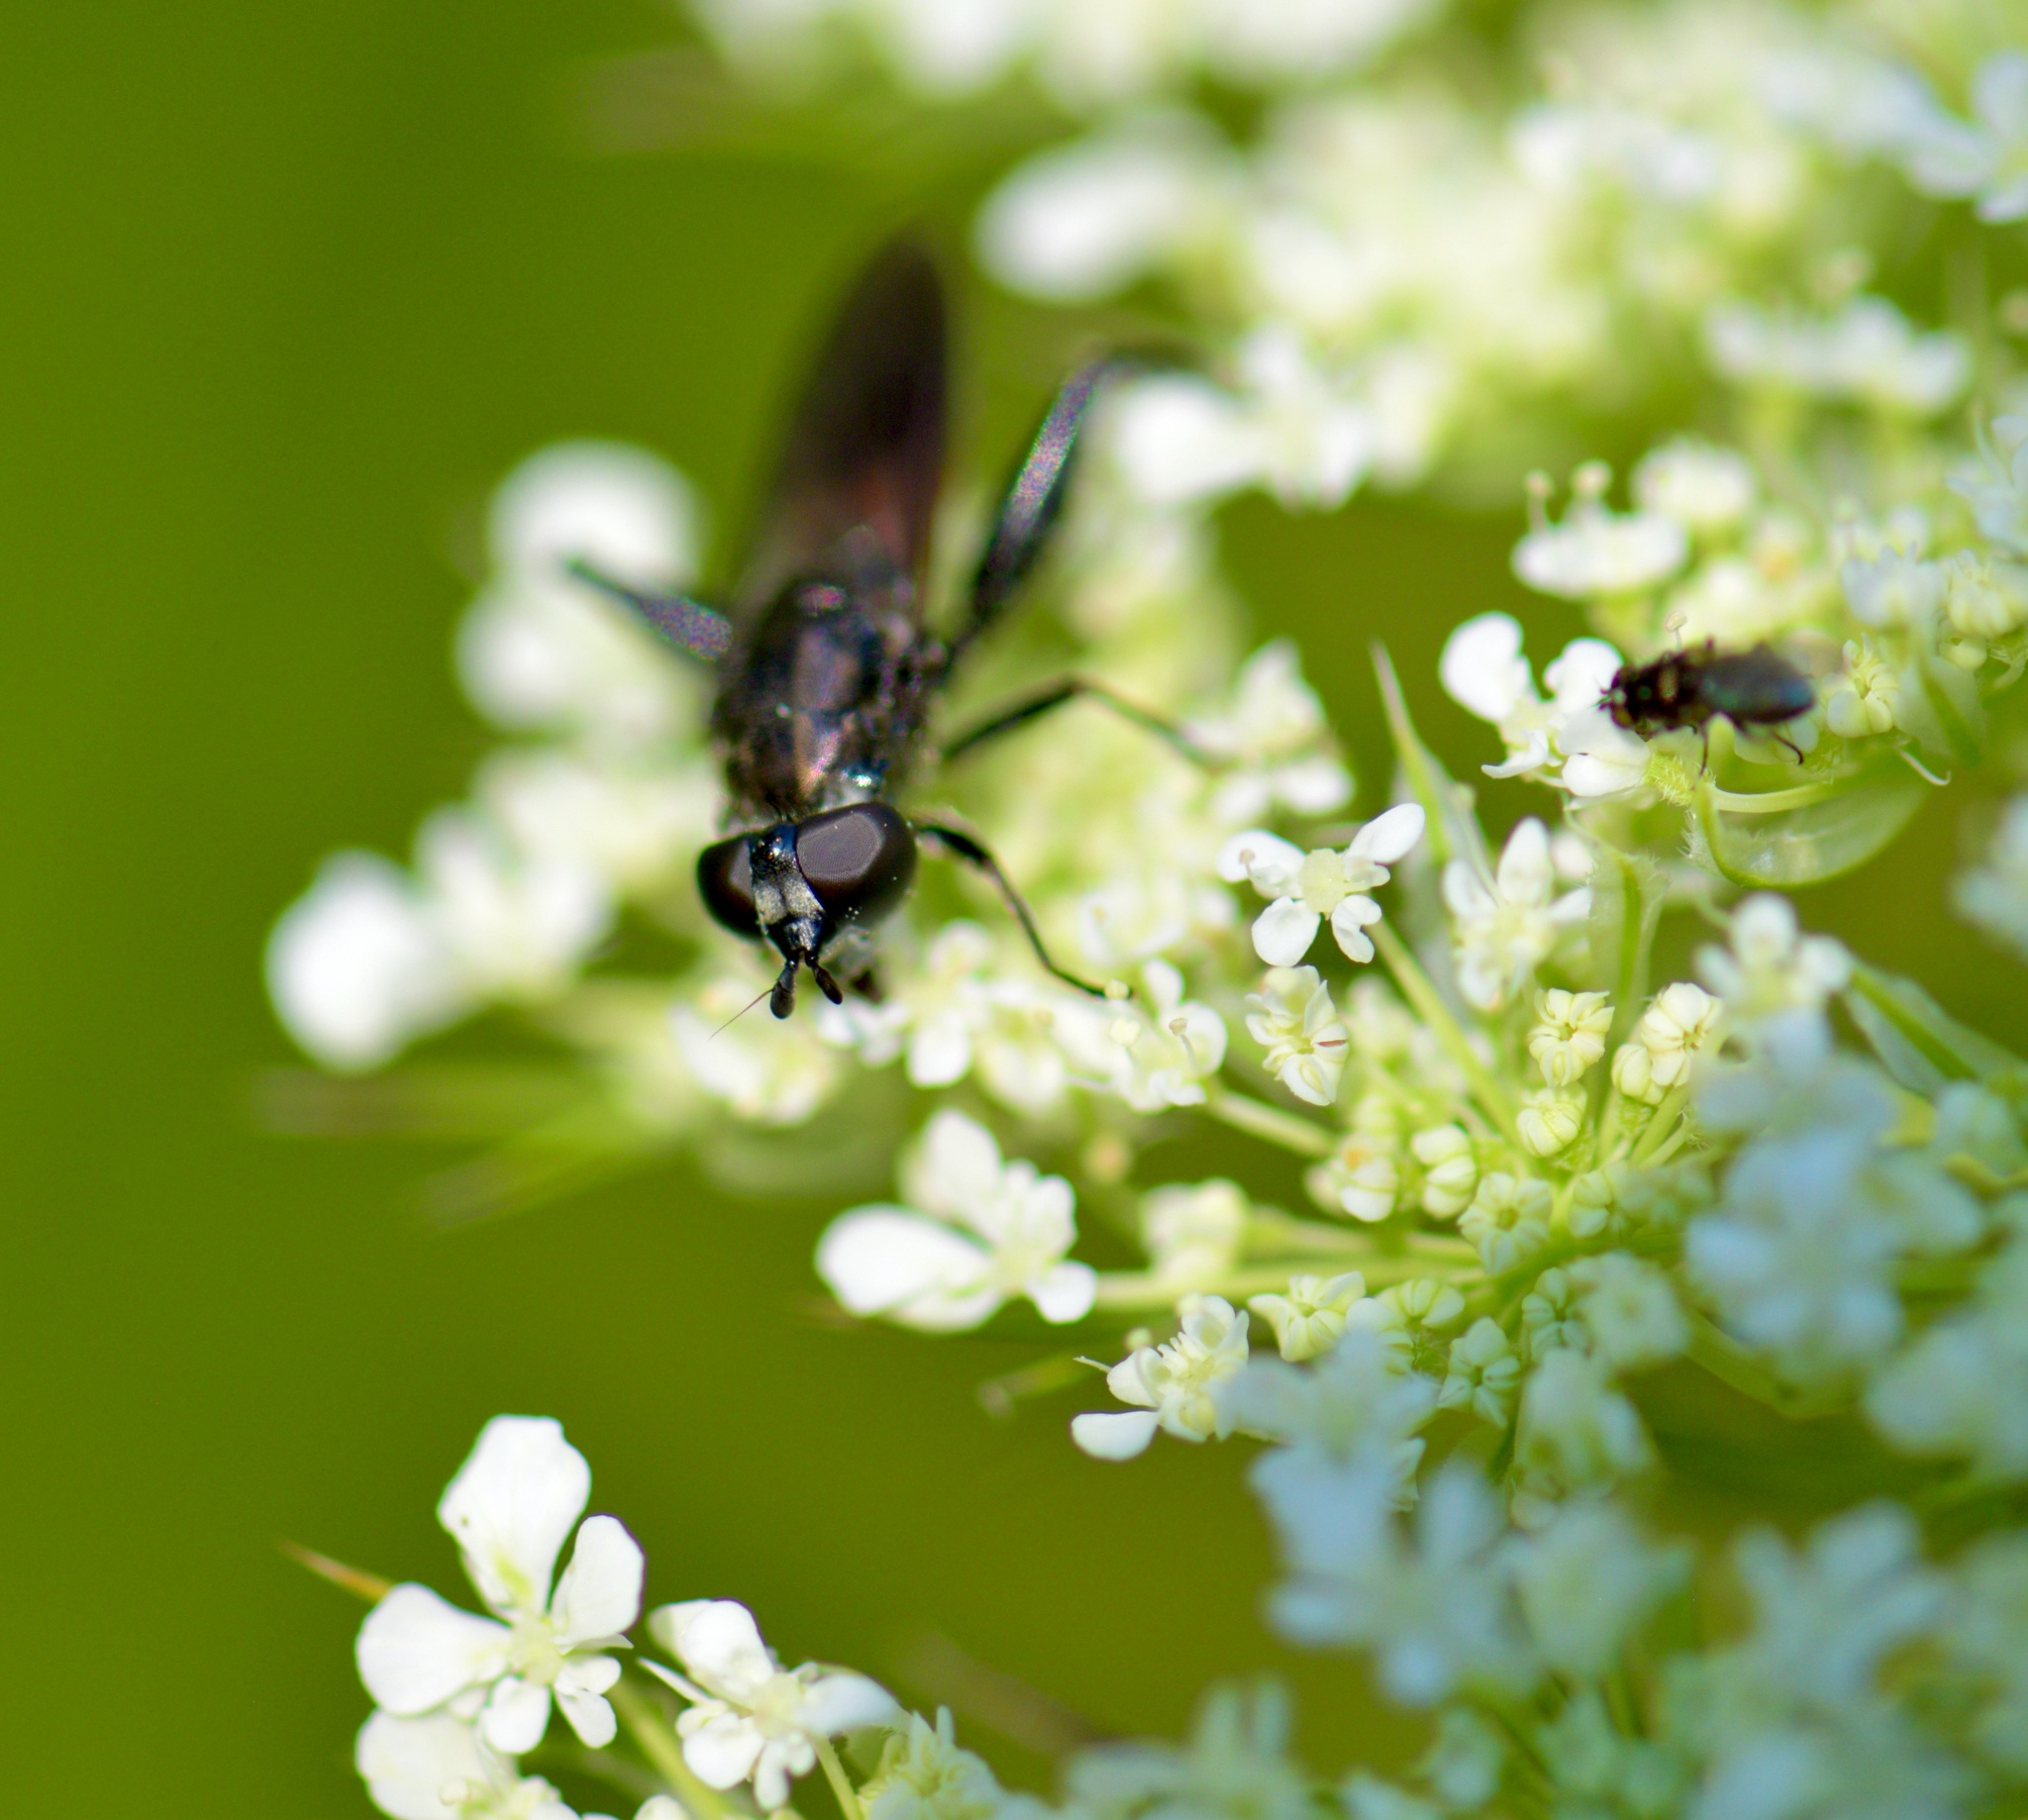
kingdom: Animalia
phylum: Arthropoda
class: Insecta
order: Diptera
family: Syrphidae
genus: Chalcosyrphus
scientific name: Chalcosyrphus piger
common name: Short-haired leafwalker
